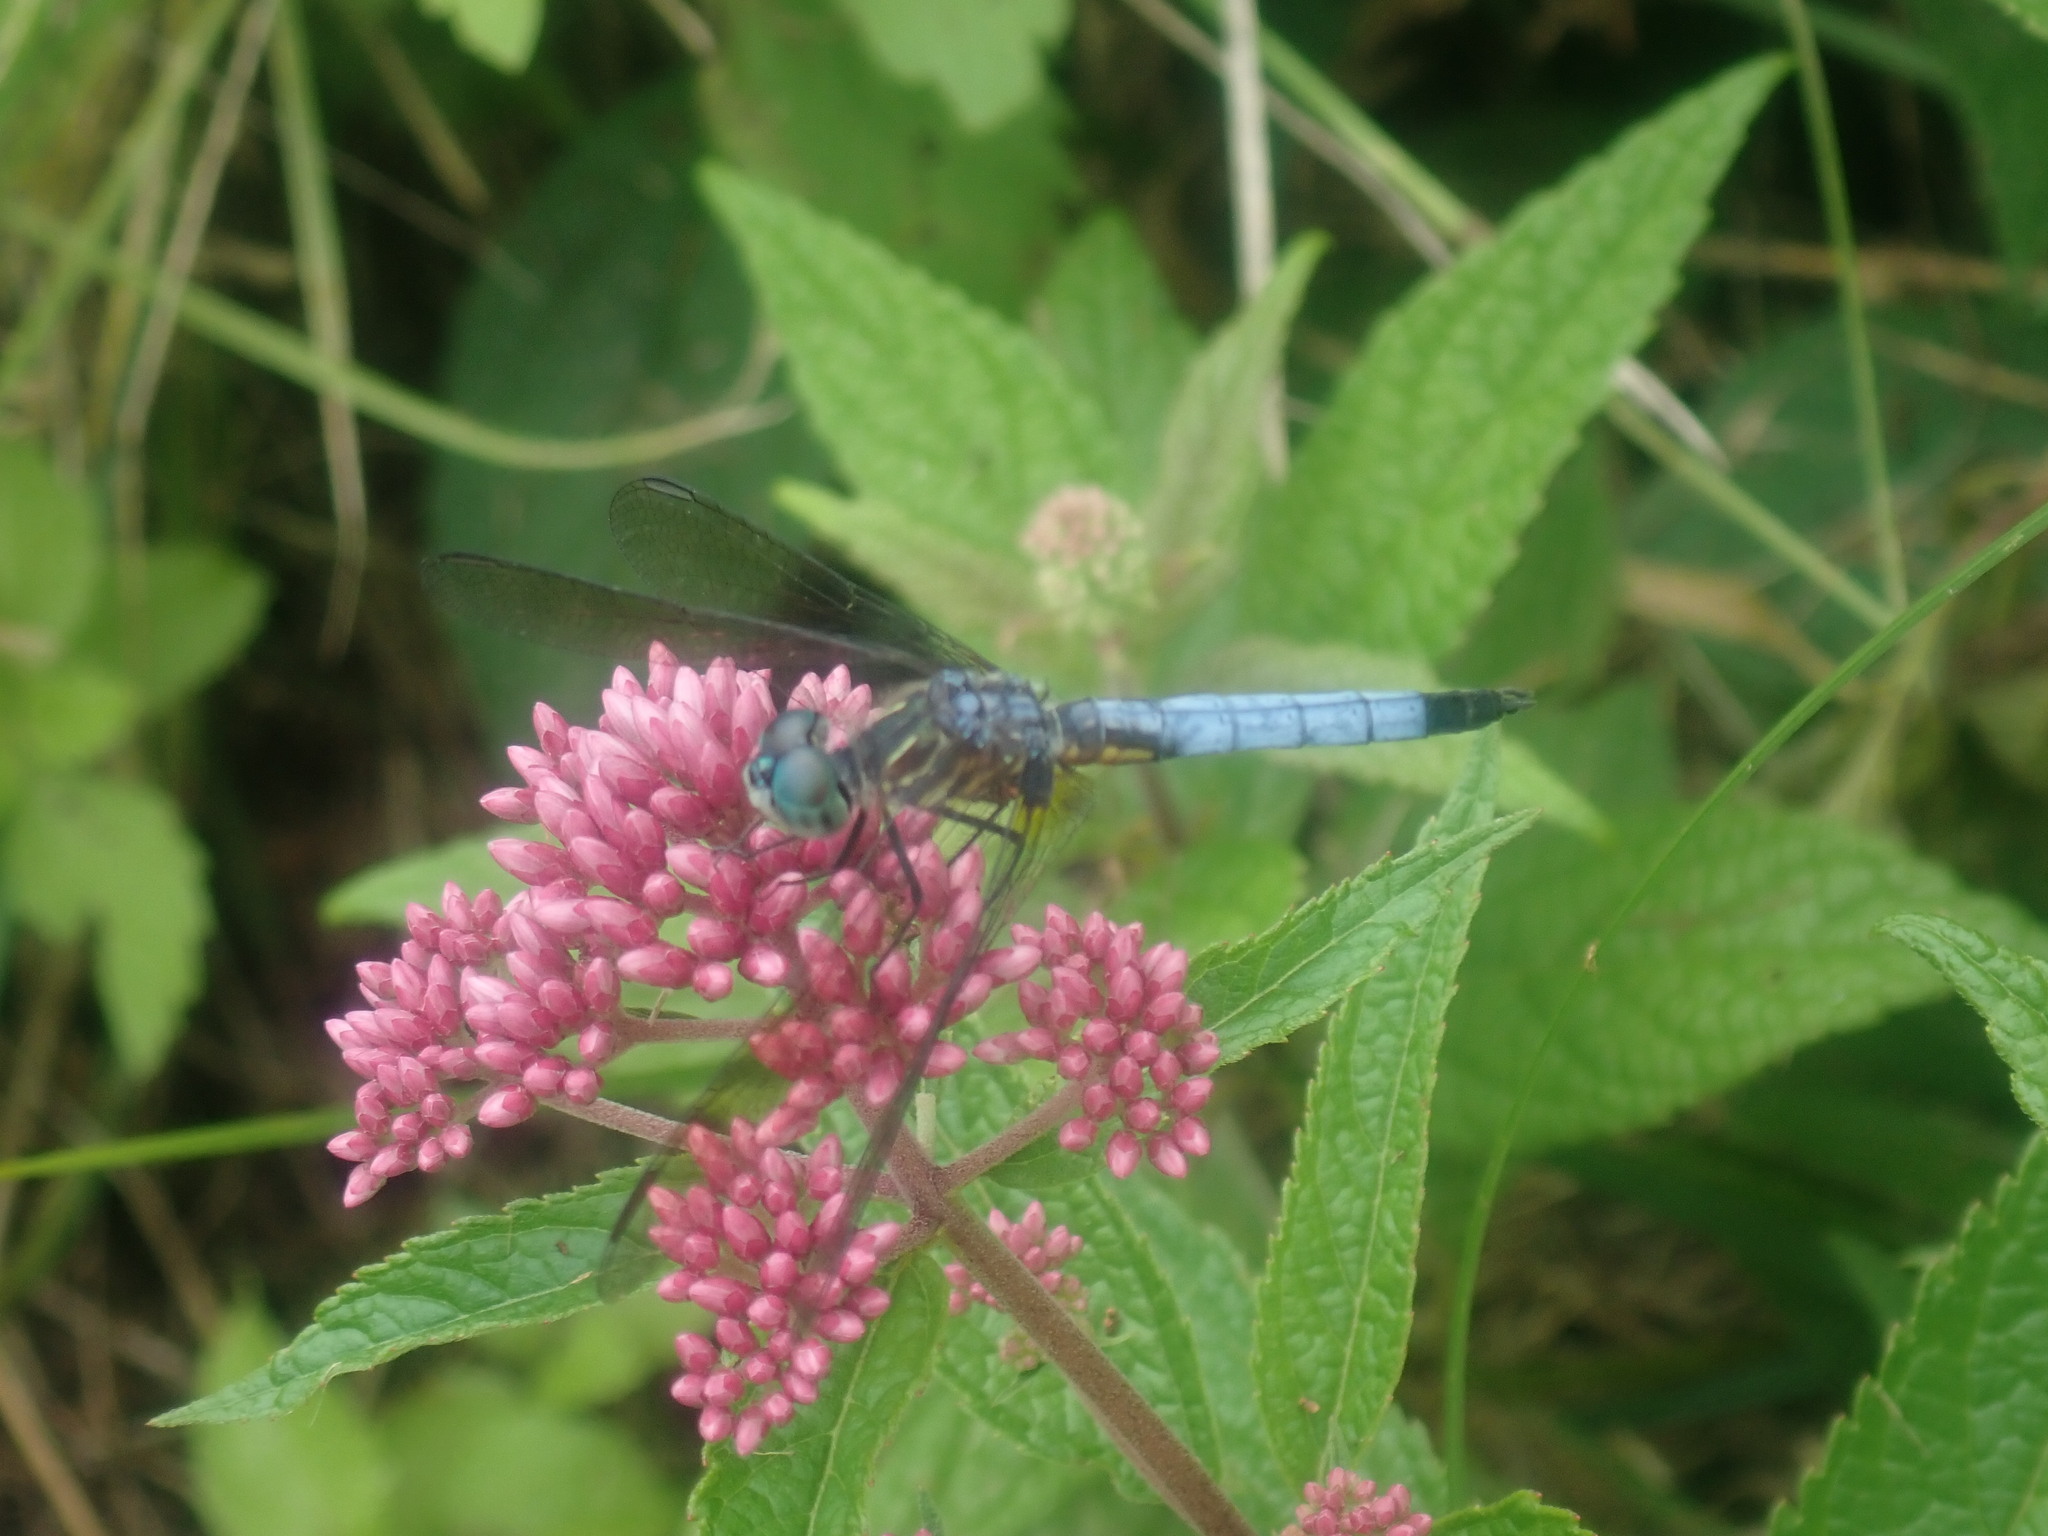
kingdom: Animalia
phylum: Arthropoda
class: Insecta
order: Odonata
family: Libellulidae
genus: Pachydiplax
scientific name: Pachydiplax longipennis
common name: Blue dasher
